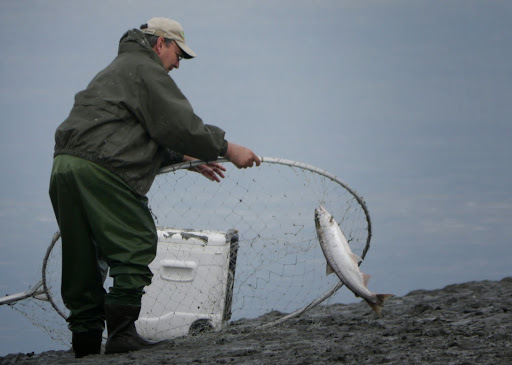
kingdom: Animalia
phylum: Chordata
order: Salmoniformes
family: Salmonidae
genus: Oncorhynchus
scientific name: Oncorhynchus nerka
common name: Sockeye salmon
